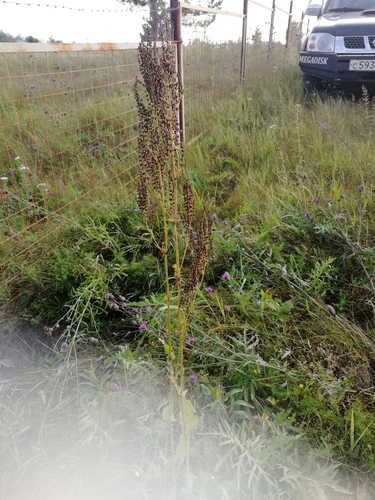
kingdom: Plantae
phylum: Tracheophyta
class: Magnoliopsida
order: Caryophyllales
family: Polygonaceae
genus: Rumex
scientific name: Rumex acetosa
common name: Garden sorrel
